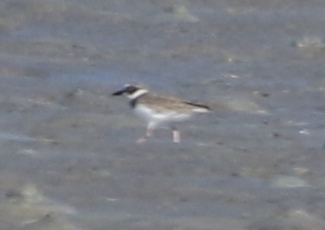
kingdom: Animalia
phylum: Chordata
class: Aves
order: Charadriiformes
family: Charadriidae
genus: Anarhynchus
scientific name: Anarhynchus
